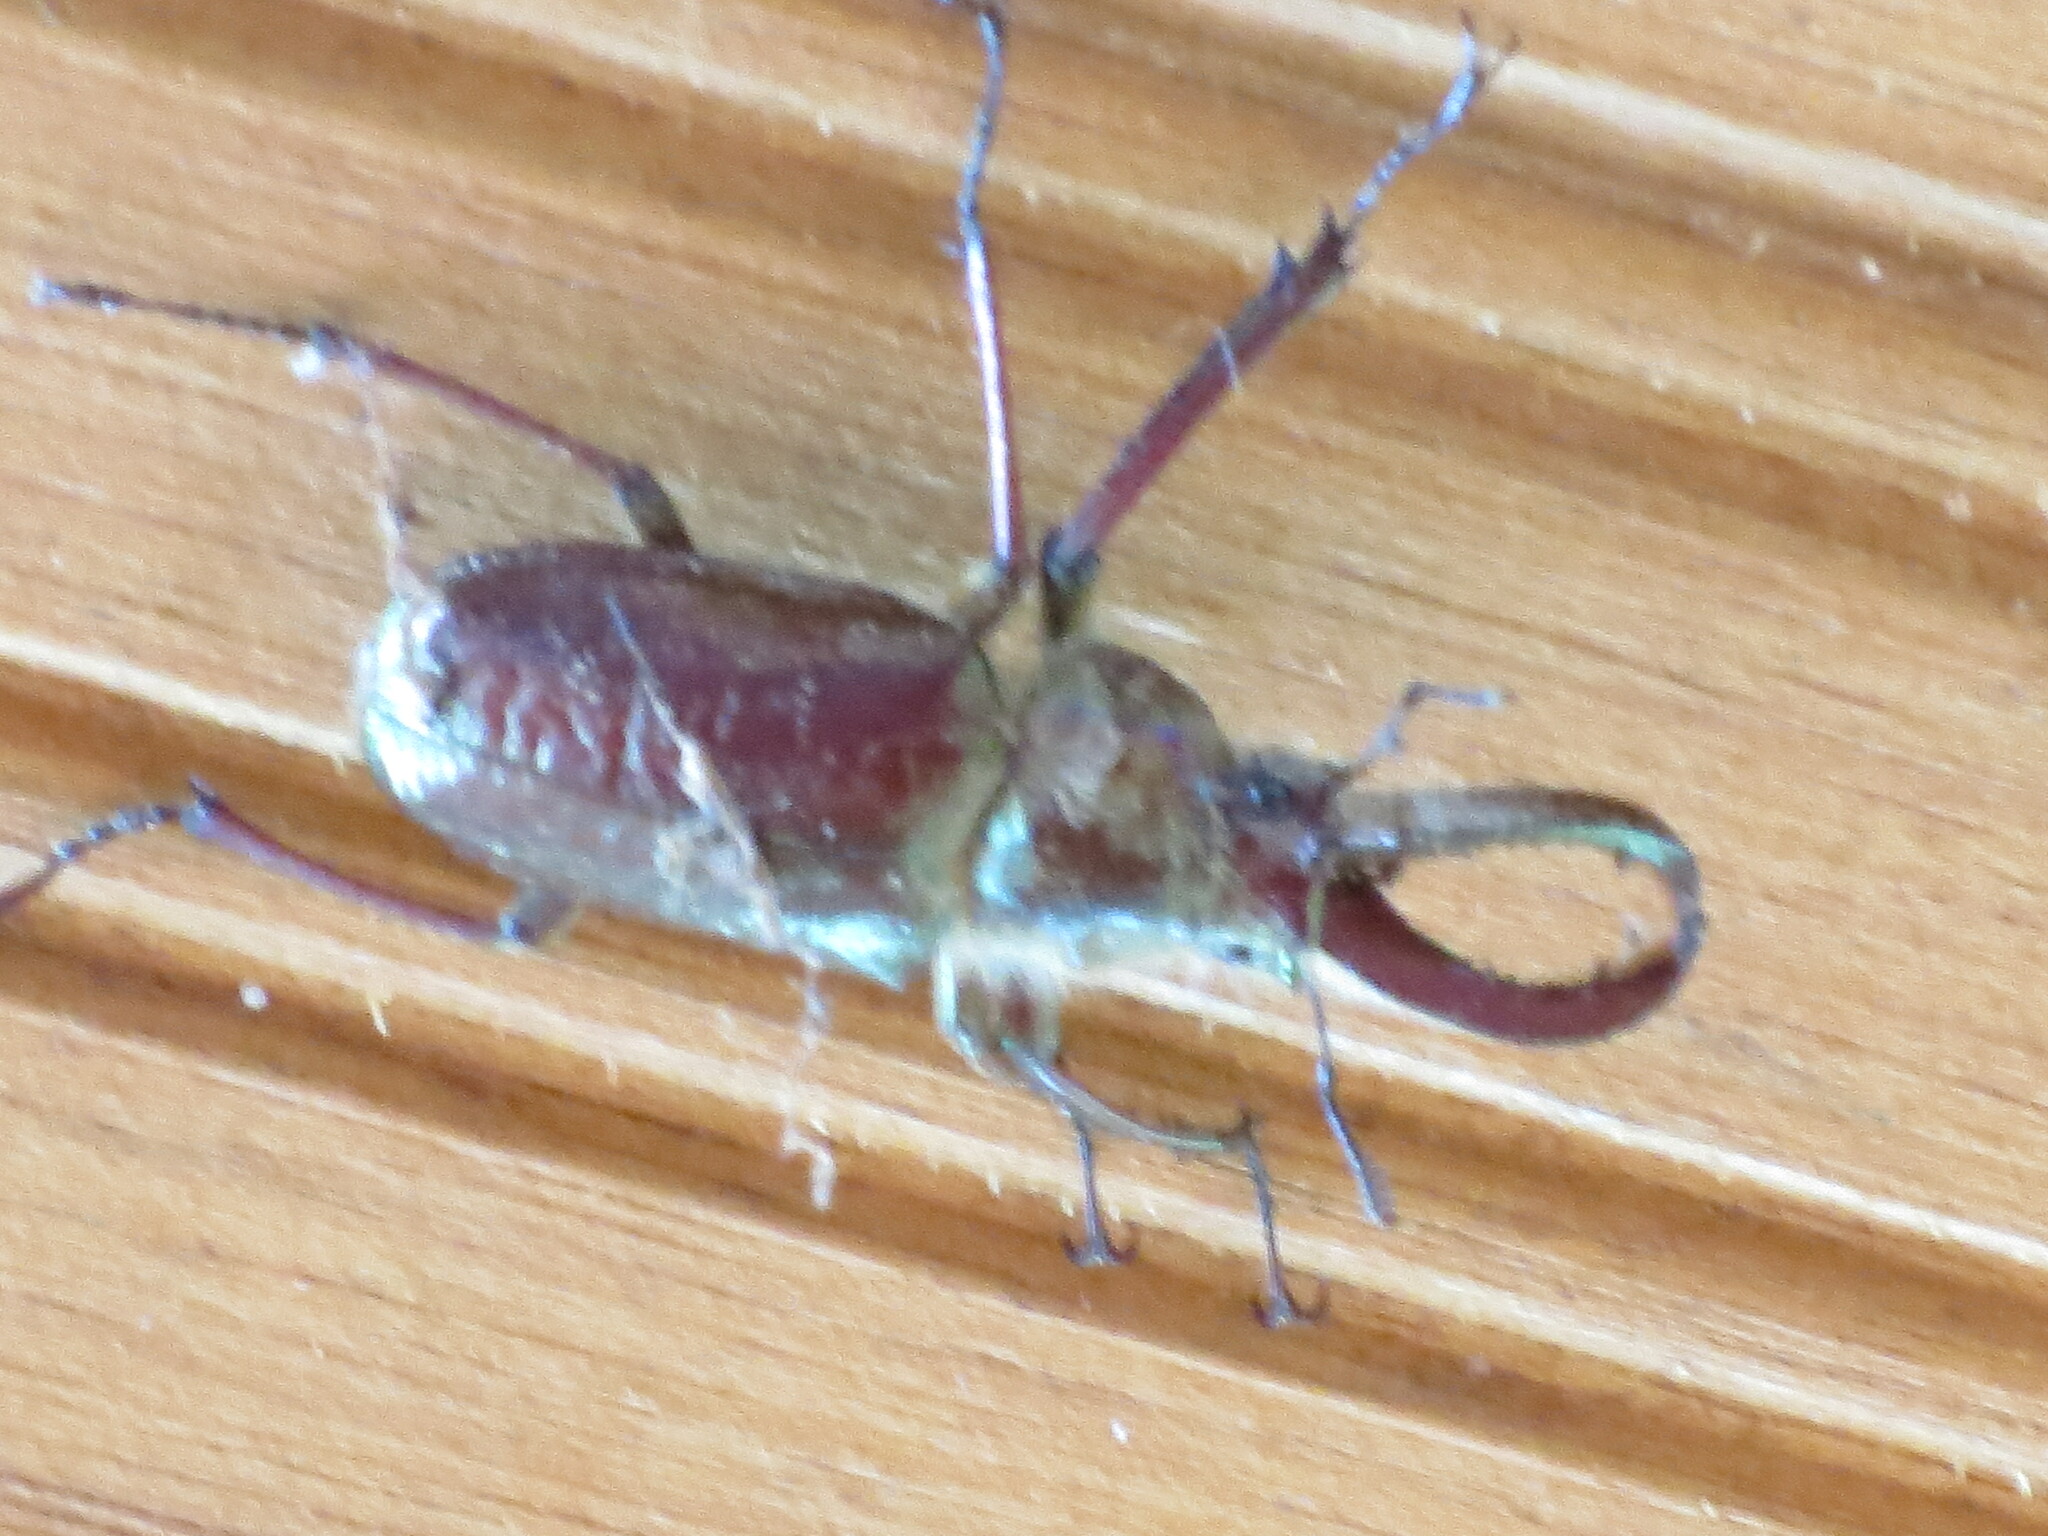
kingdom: Animalia
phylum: Arthropoda
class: Insecta
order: Coleoptera
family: Lucanidae
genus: Sphaenognathus
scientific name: Sphaenognathus bellicosus
